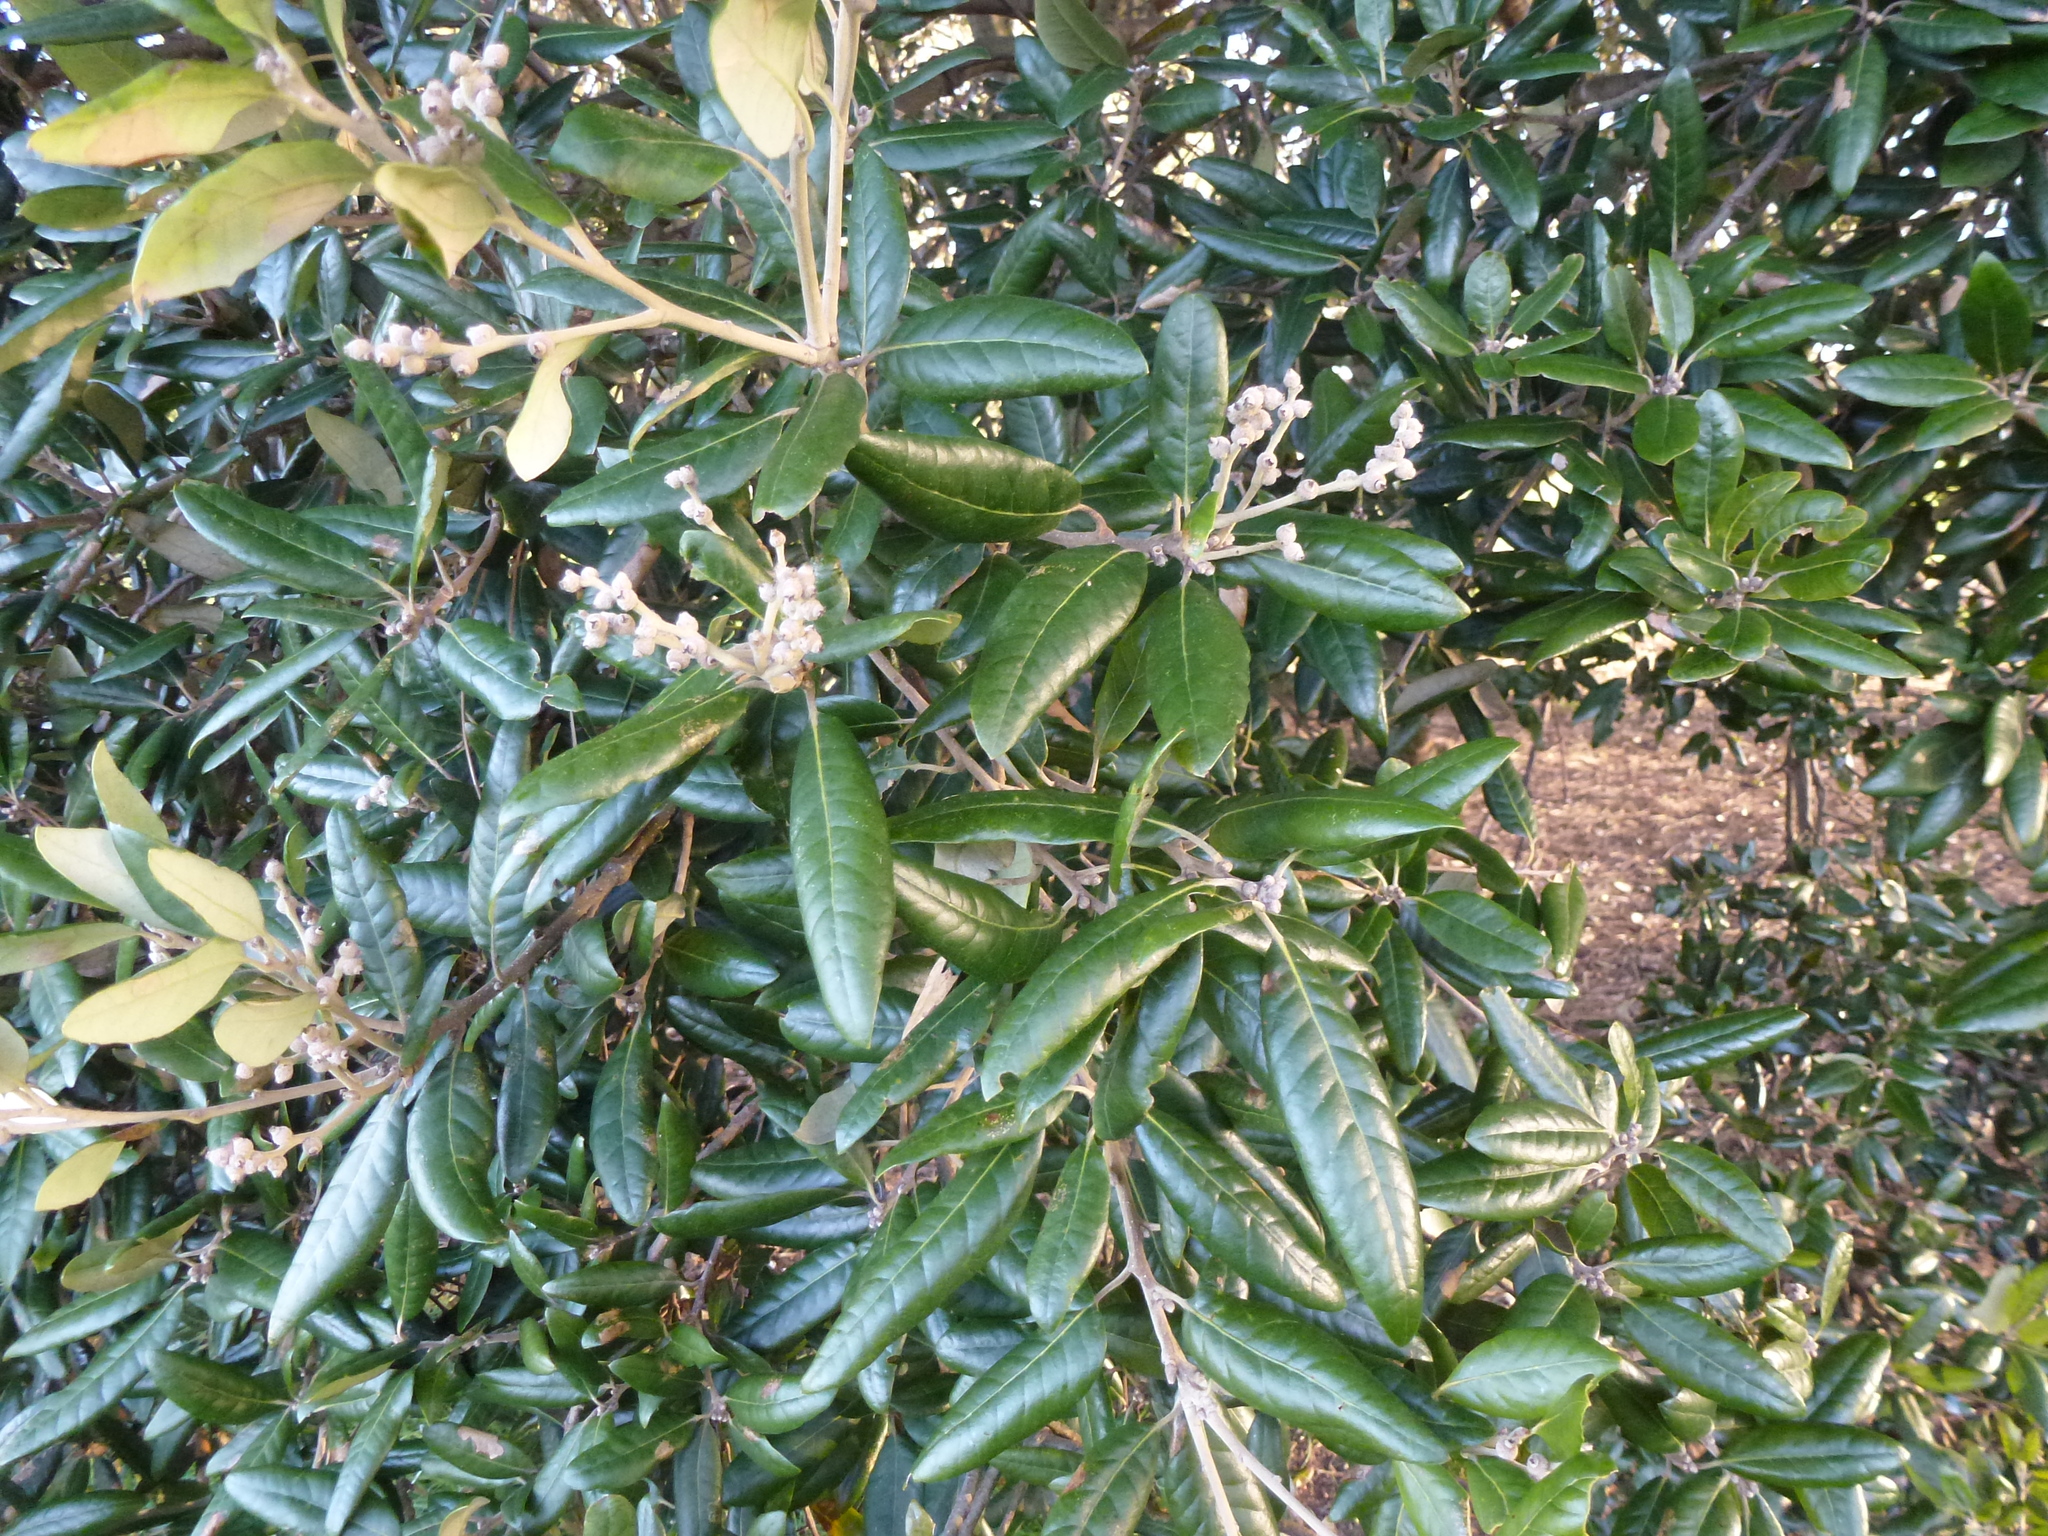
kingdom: Plantae
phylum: Tracheophyta
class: Magnoliopsida
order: Fagales
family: Fagaceae
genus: Quercus
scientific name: Quercus ilex
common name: Evergreen oak
